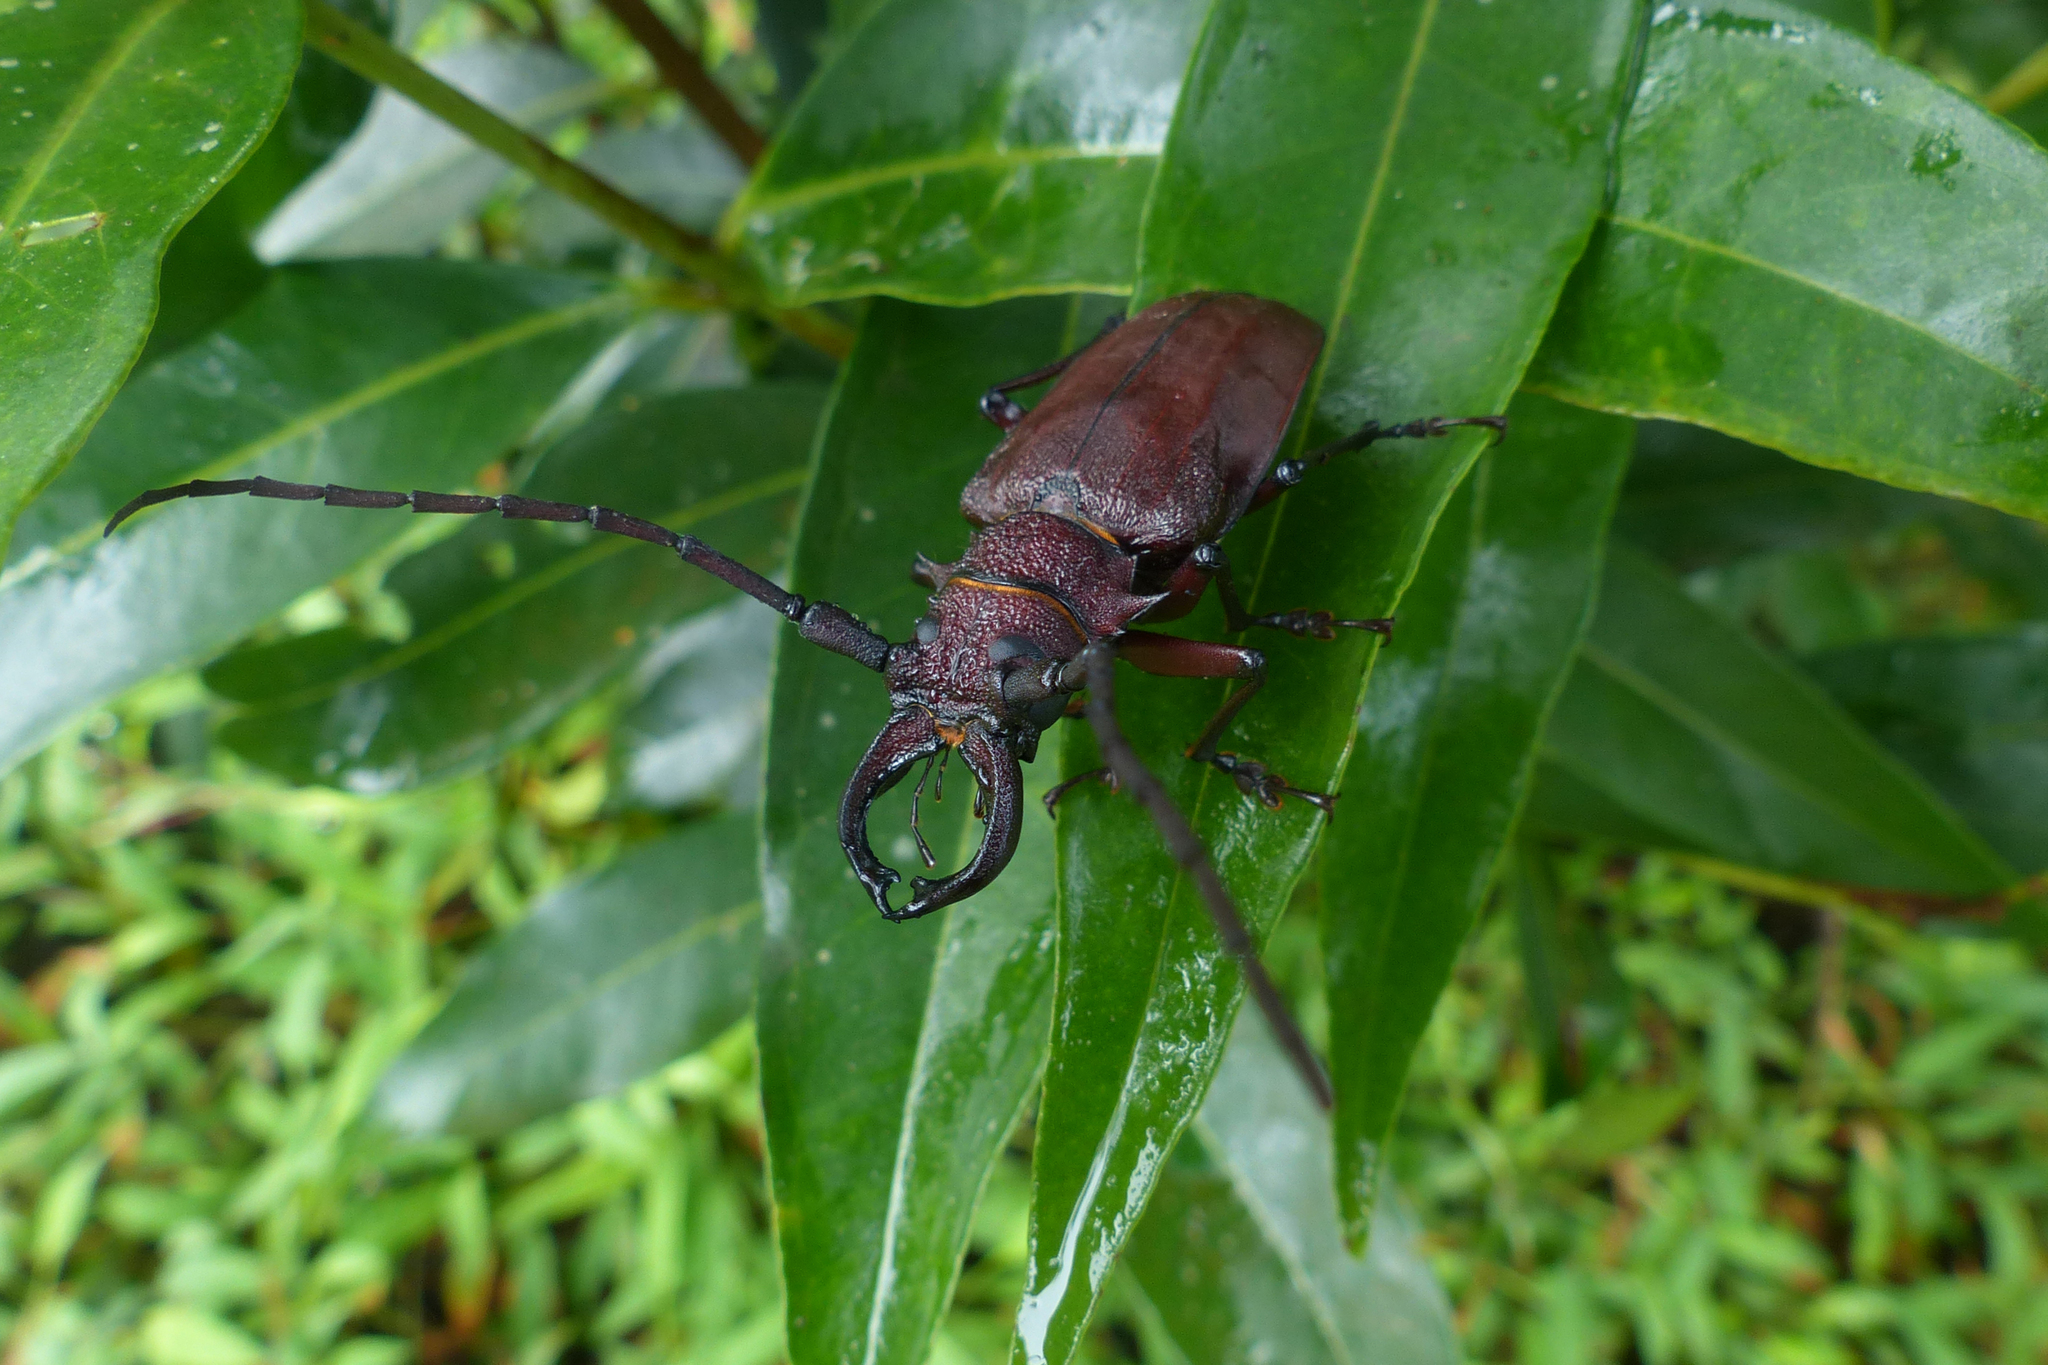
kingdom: Animalia
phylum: Arthropoda
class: Insecta
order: Coleoptera
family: Cerambycidae
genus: Priotyrannus
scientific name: Priotyrannus mordax
